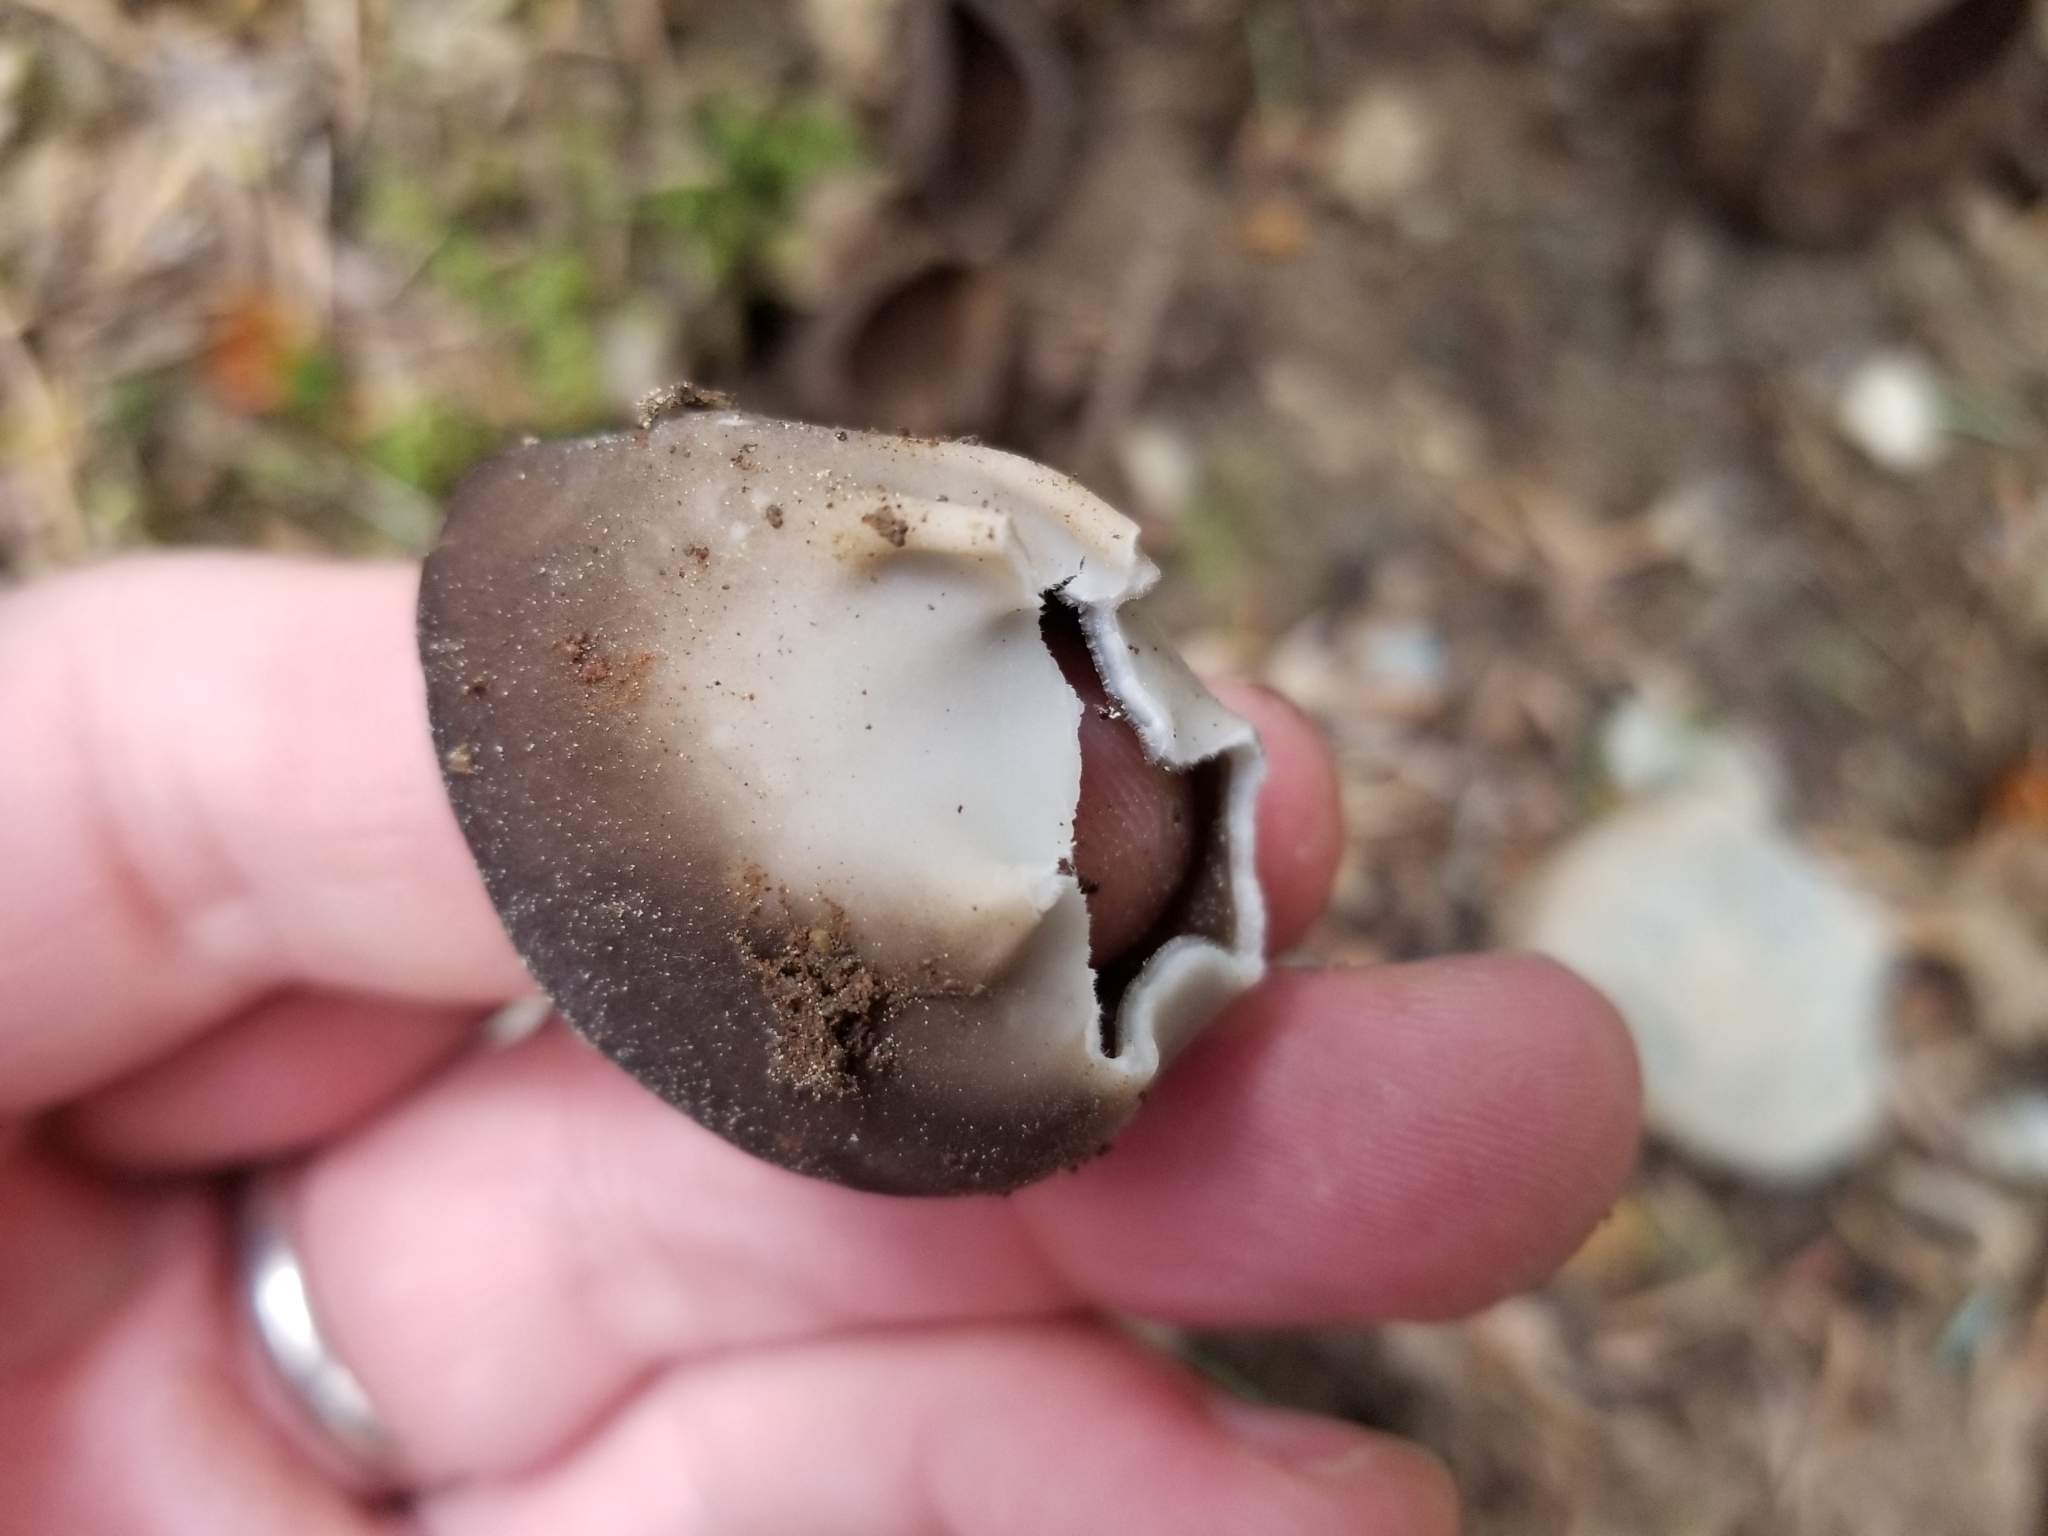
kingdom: Fungi
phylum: Ascomycota
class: Pezizomycetes
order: Pezizales
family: Helvellaceae
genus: Dissingia
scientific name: Dissingia leucomelaena
